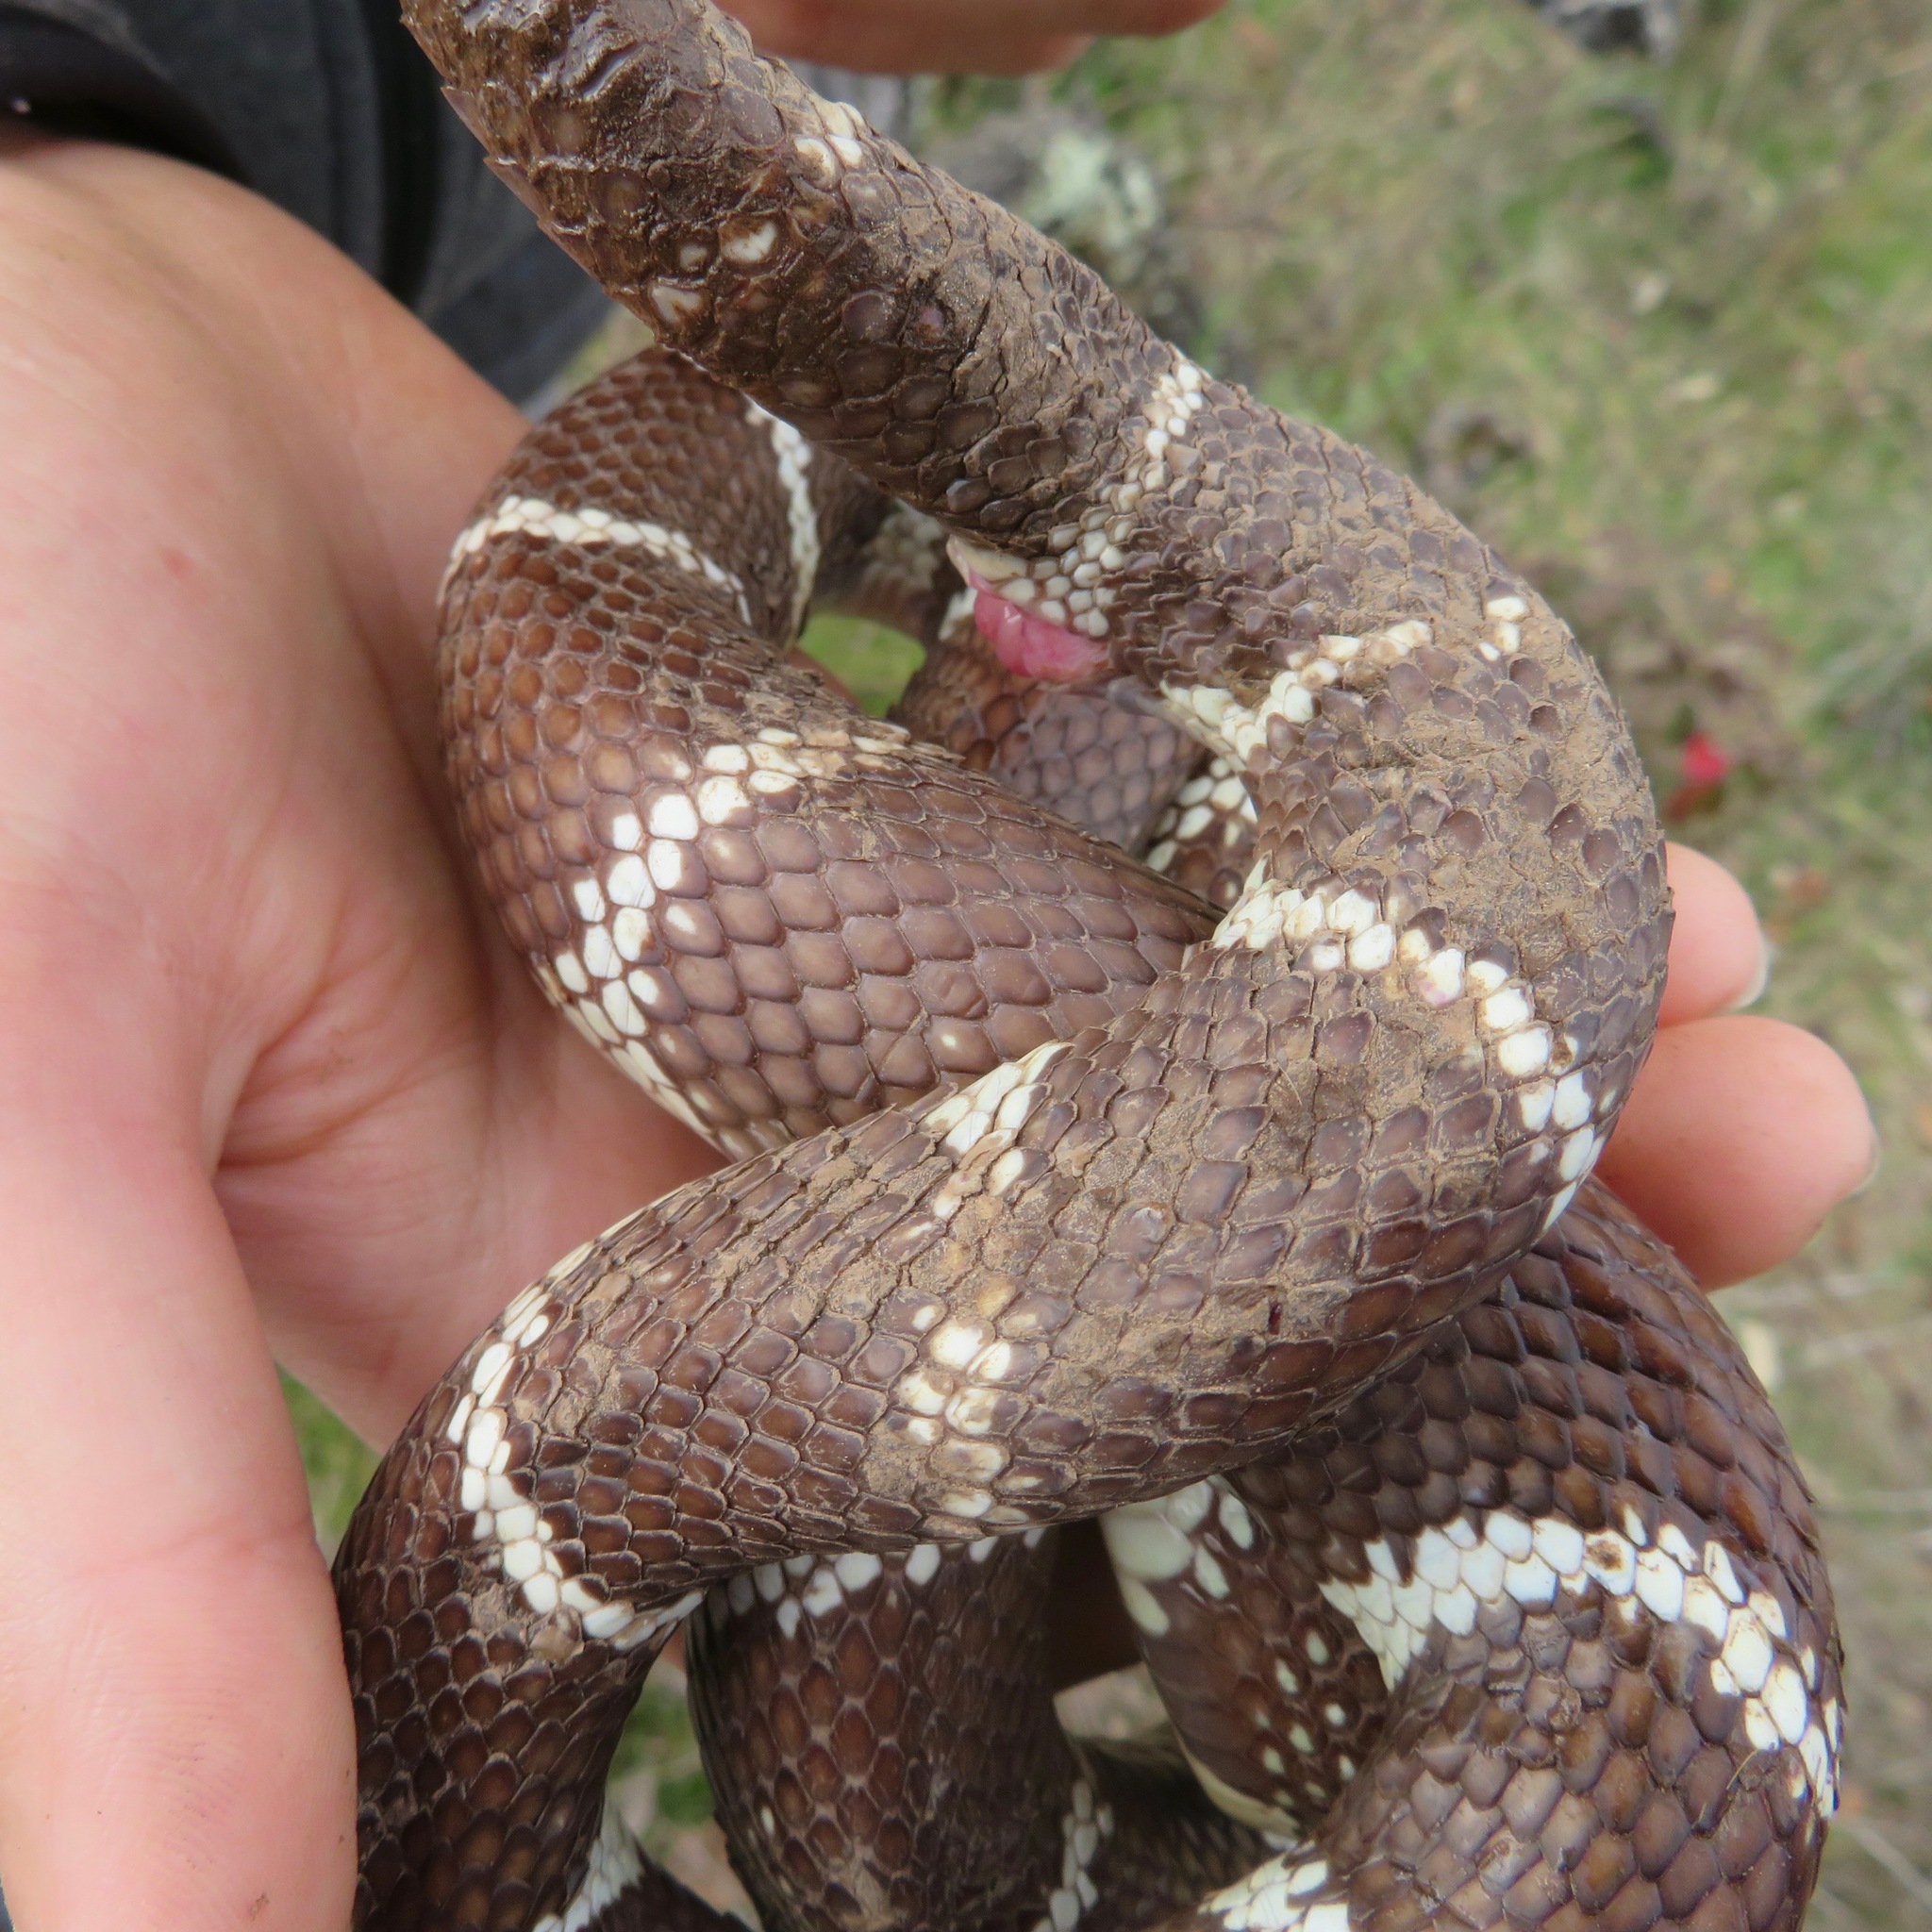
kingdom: Animalia
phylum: Chordata
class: Squamata
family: Colubridae
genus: Lampropeltis
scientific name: Lampropeltis californiae
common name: California kingsnake
